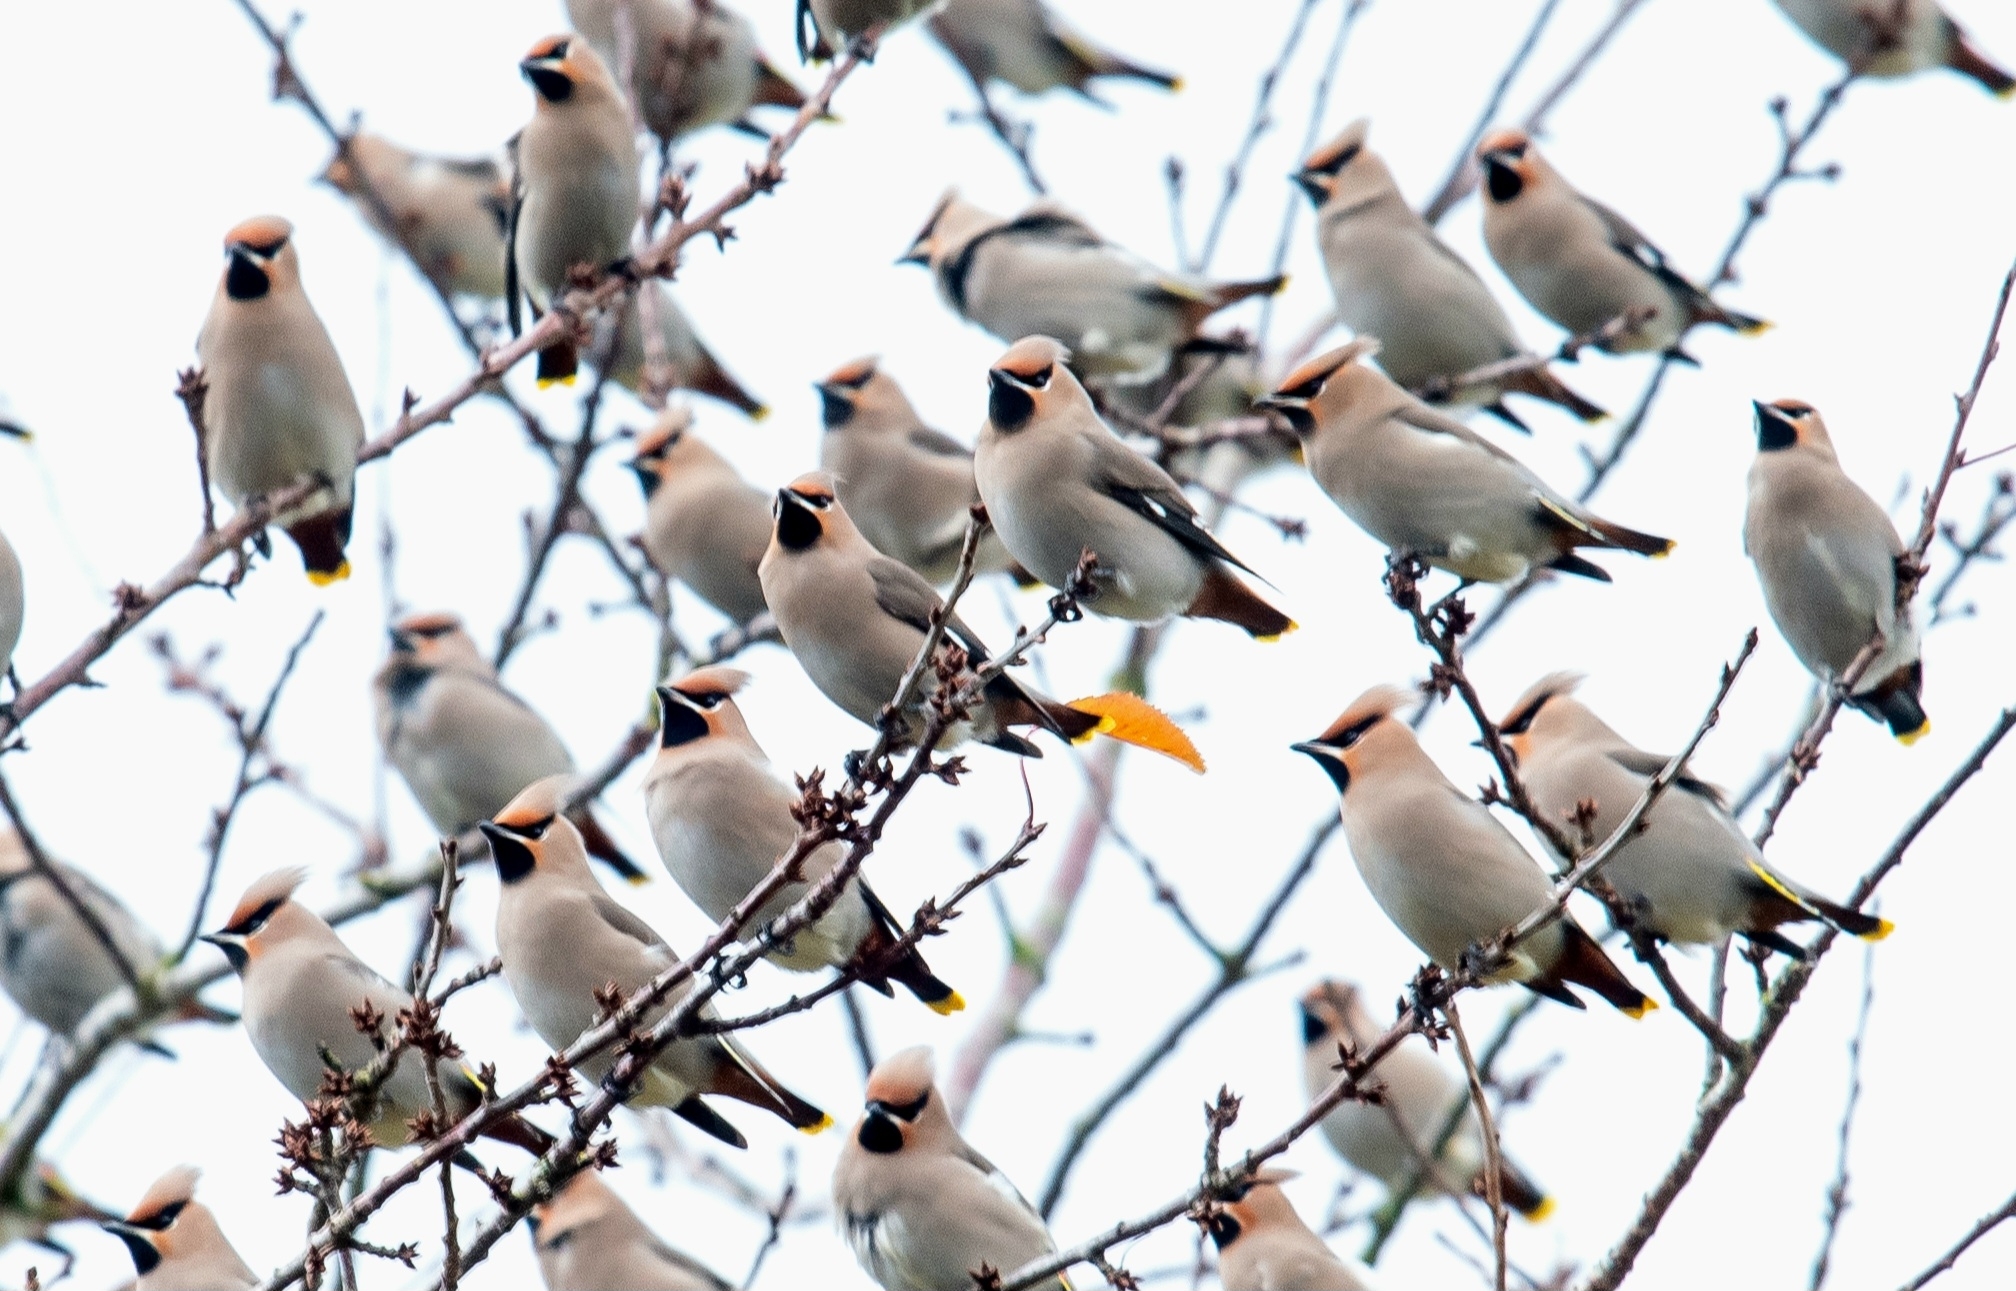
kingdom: Animalia
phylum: Chordata
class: Aves
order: Passeriformes
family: Bombycillidae
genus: Bombycilla
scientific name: Bombycilla garrulus
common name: Bohemian waxwing
